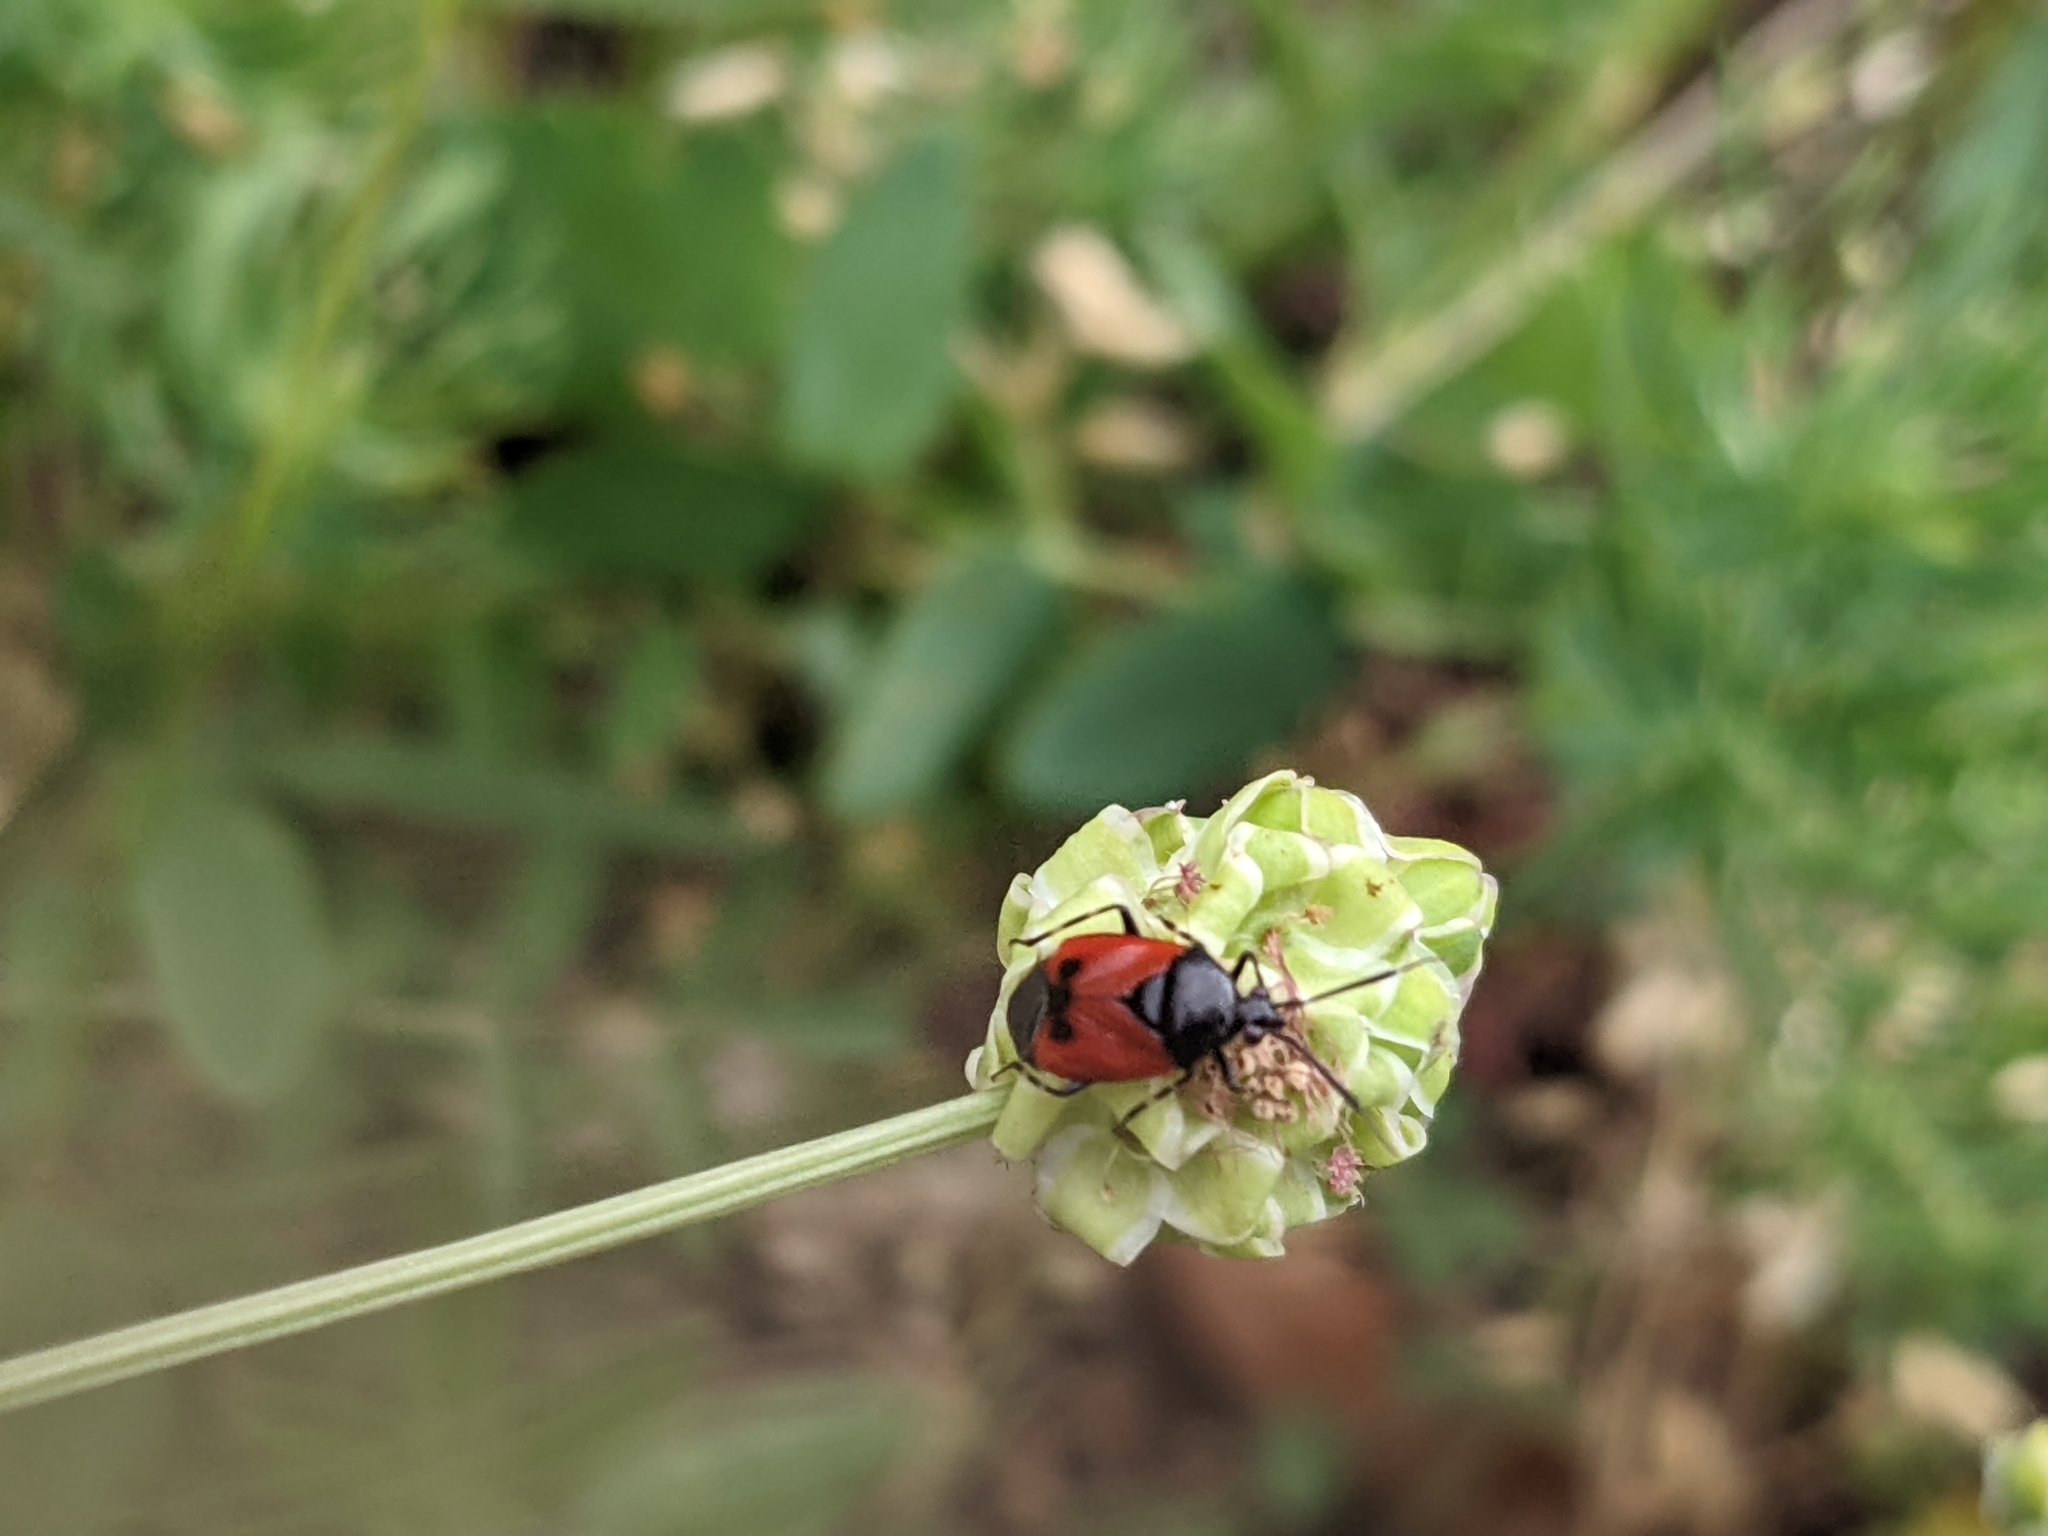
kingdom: Animalia
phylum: Arthropoda
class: Insecta
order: Hemiptera
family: Miridae
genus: Deraeocoris
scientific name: Deraeocoris rutilus
